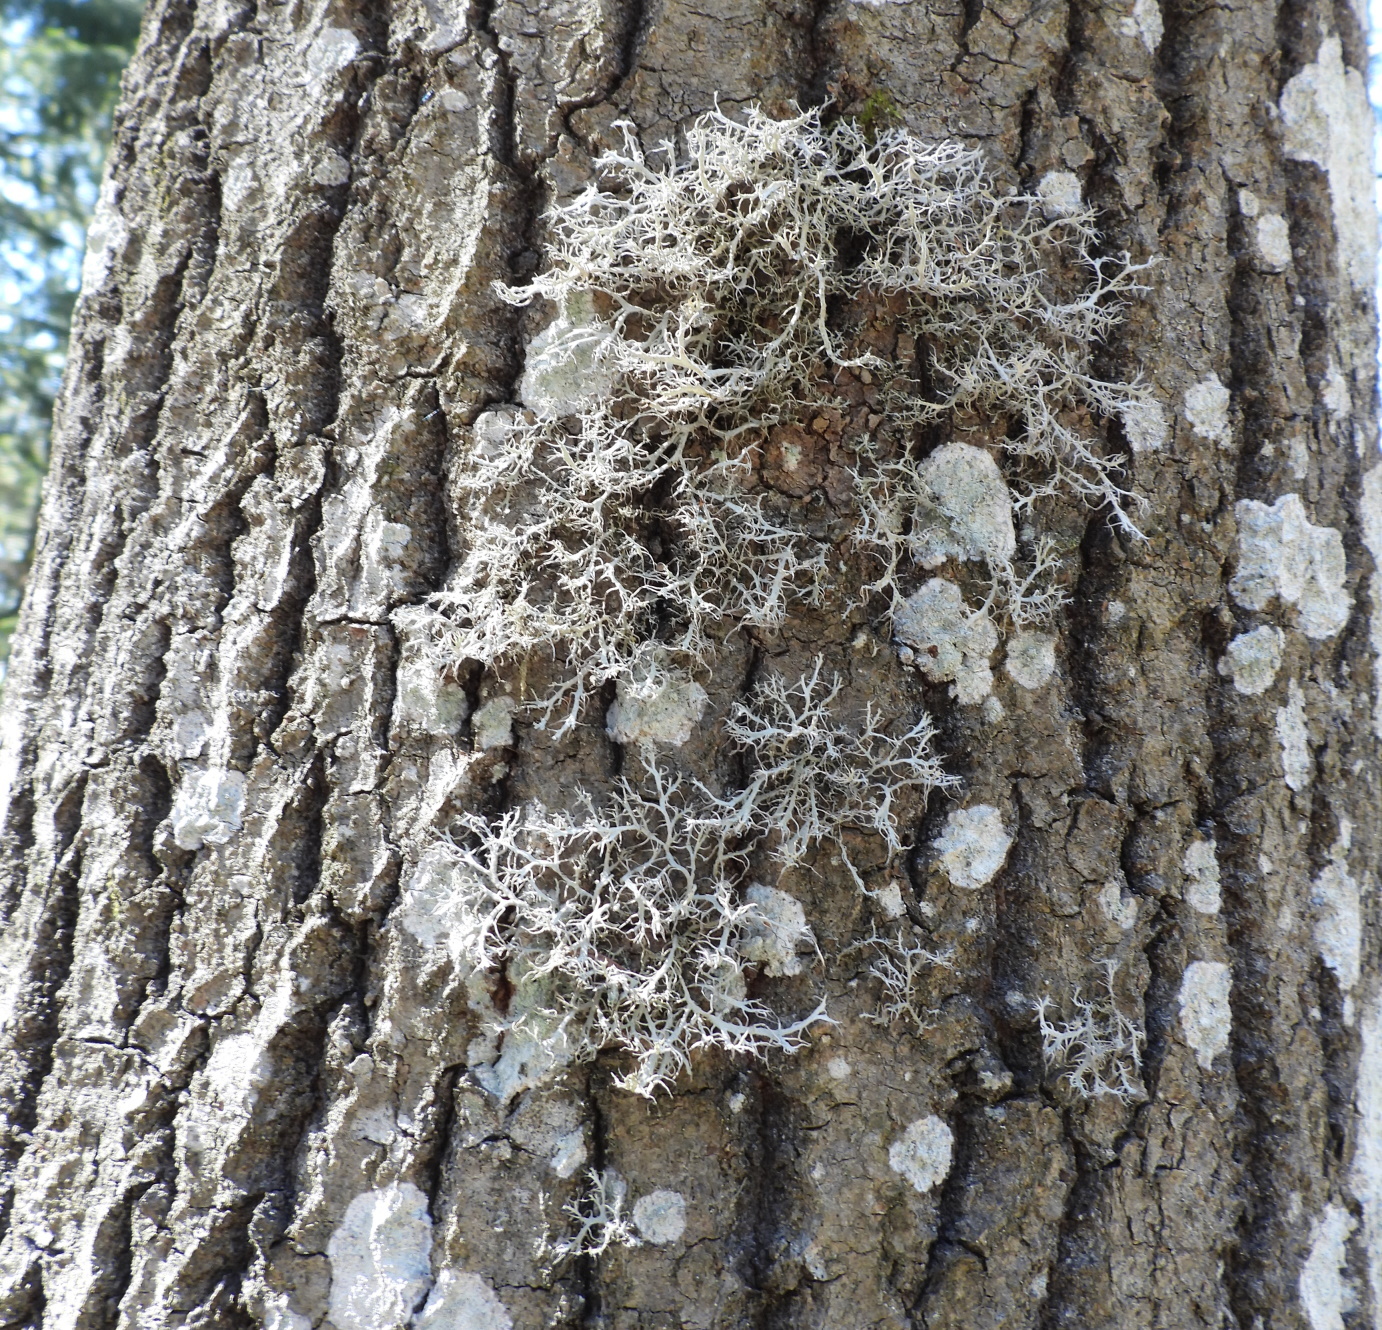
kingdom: Fungi
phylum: Ascomycota
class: Lecanoromycetes
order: Caliciales
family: Physciaceae
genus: Anaptychia
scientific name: Anaptychia ciliaris
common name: Great ciliated lichen
